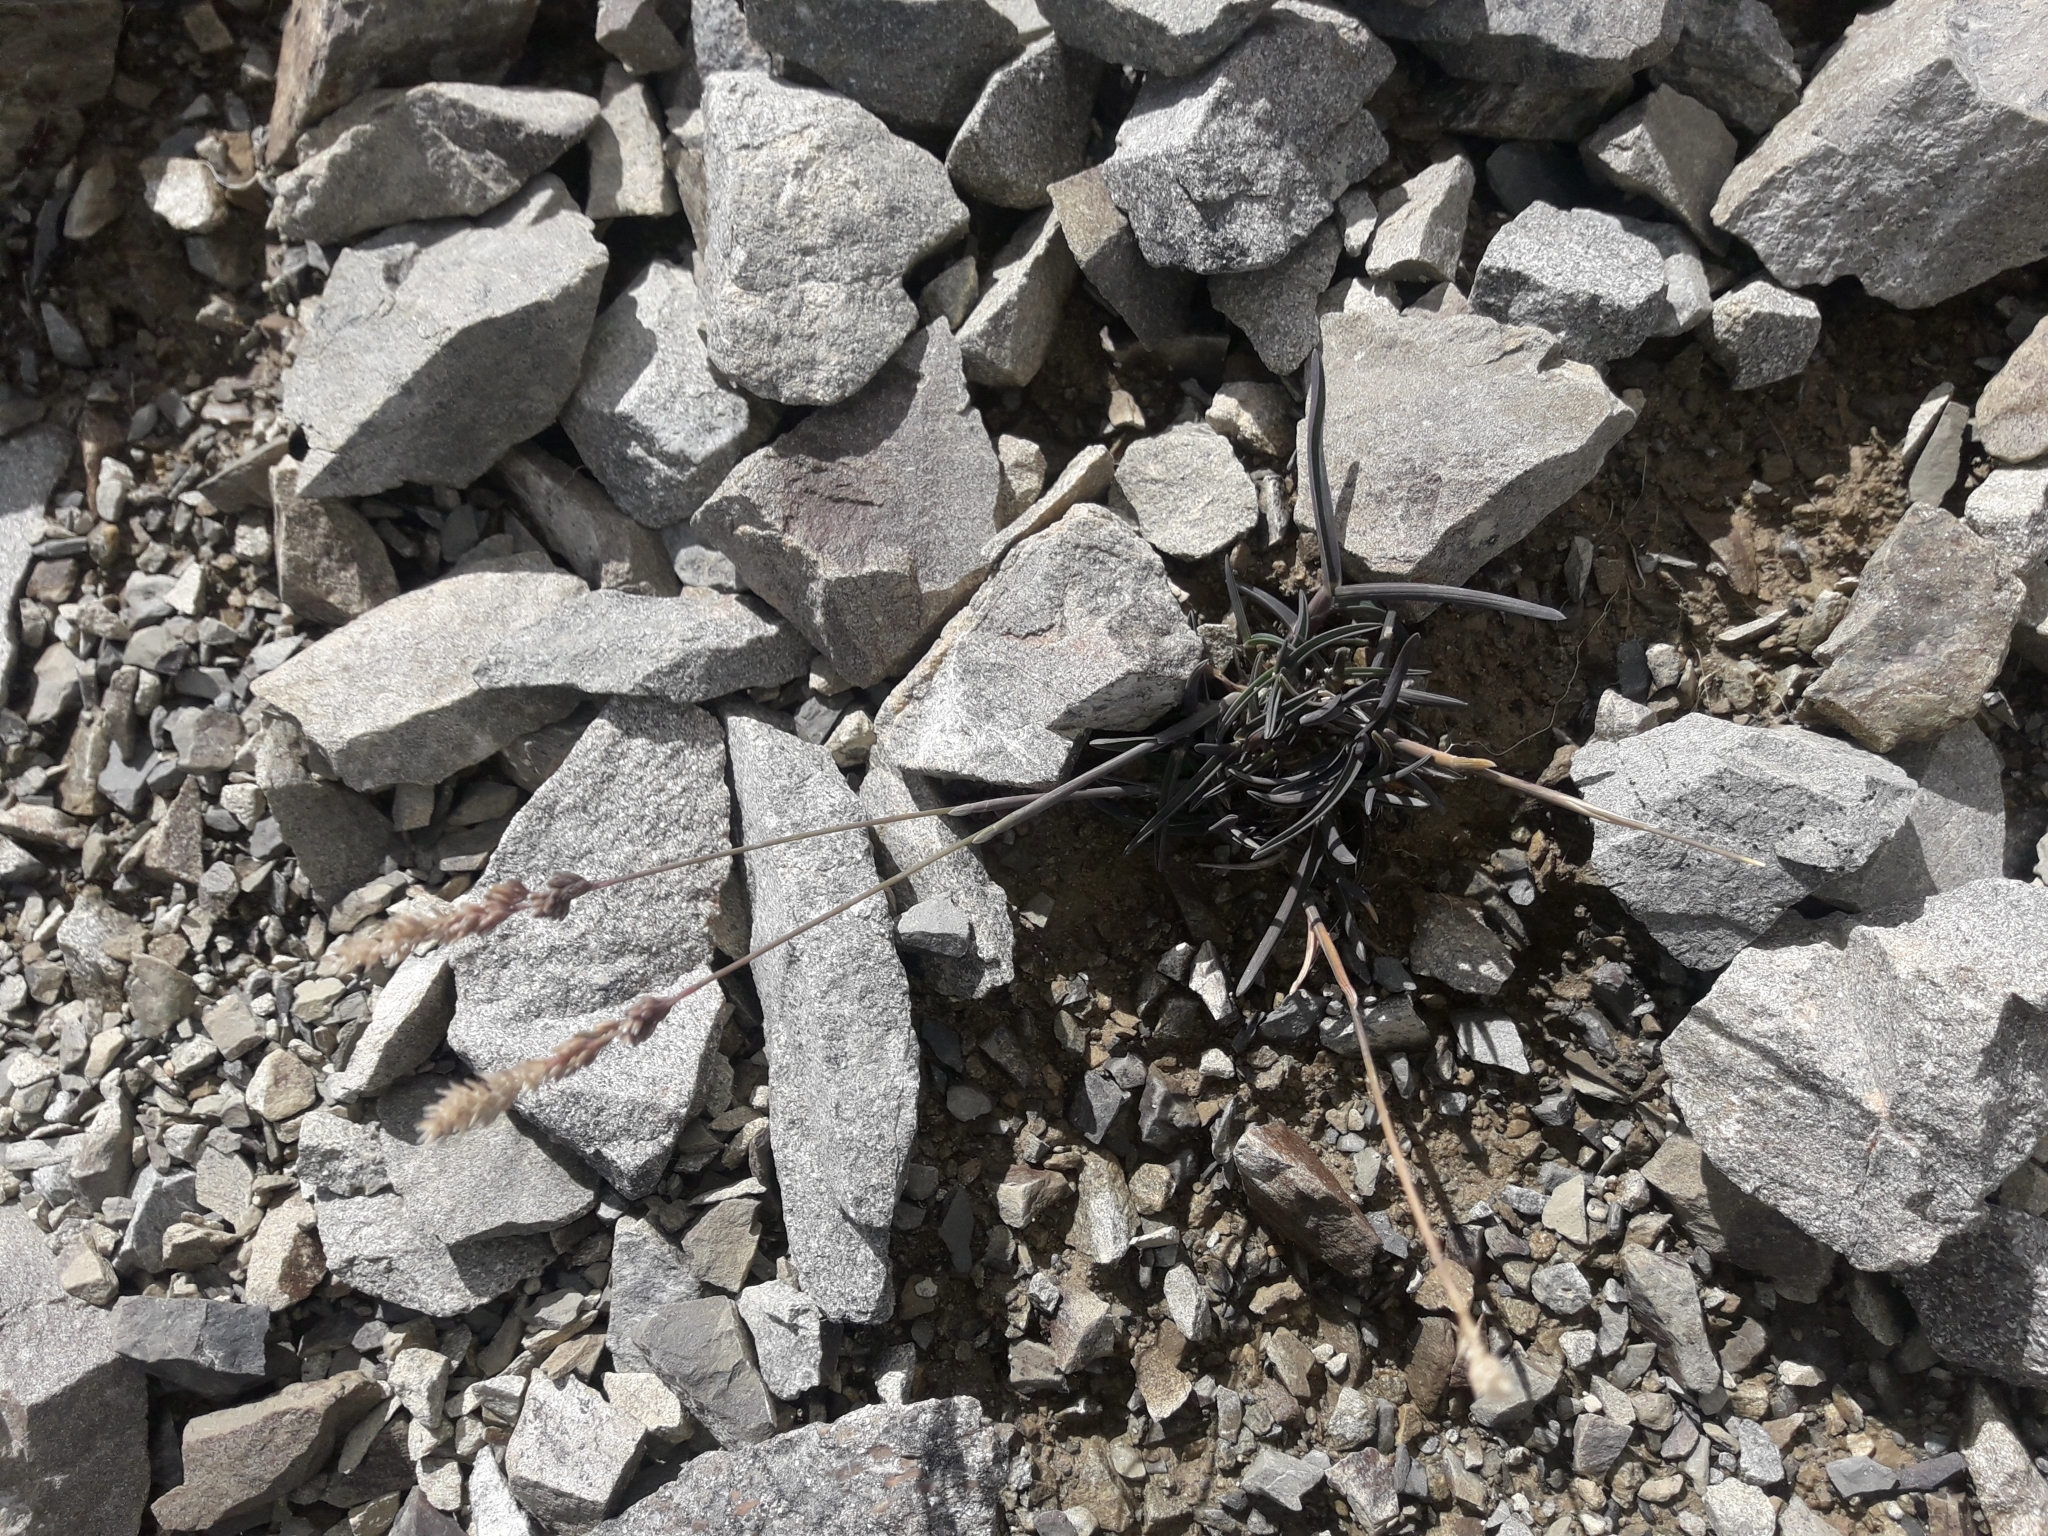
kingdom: Plantae
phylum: Tracheophyta
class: Liliopsida
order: Poales
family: Poaceae
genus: Poa
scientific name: Poa buchananii
